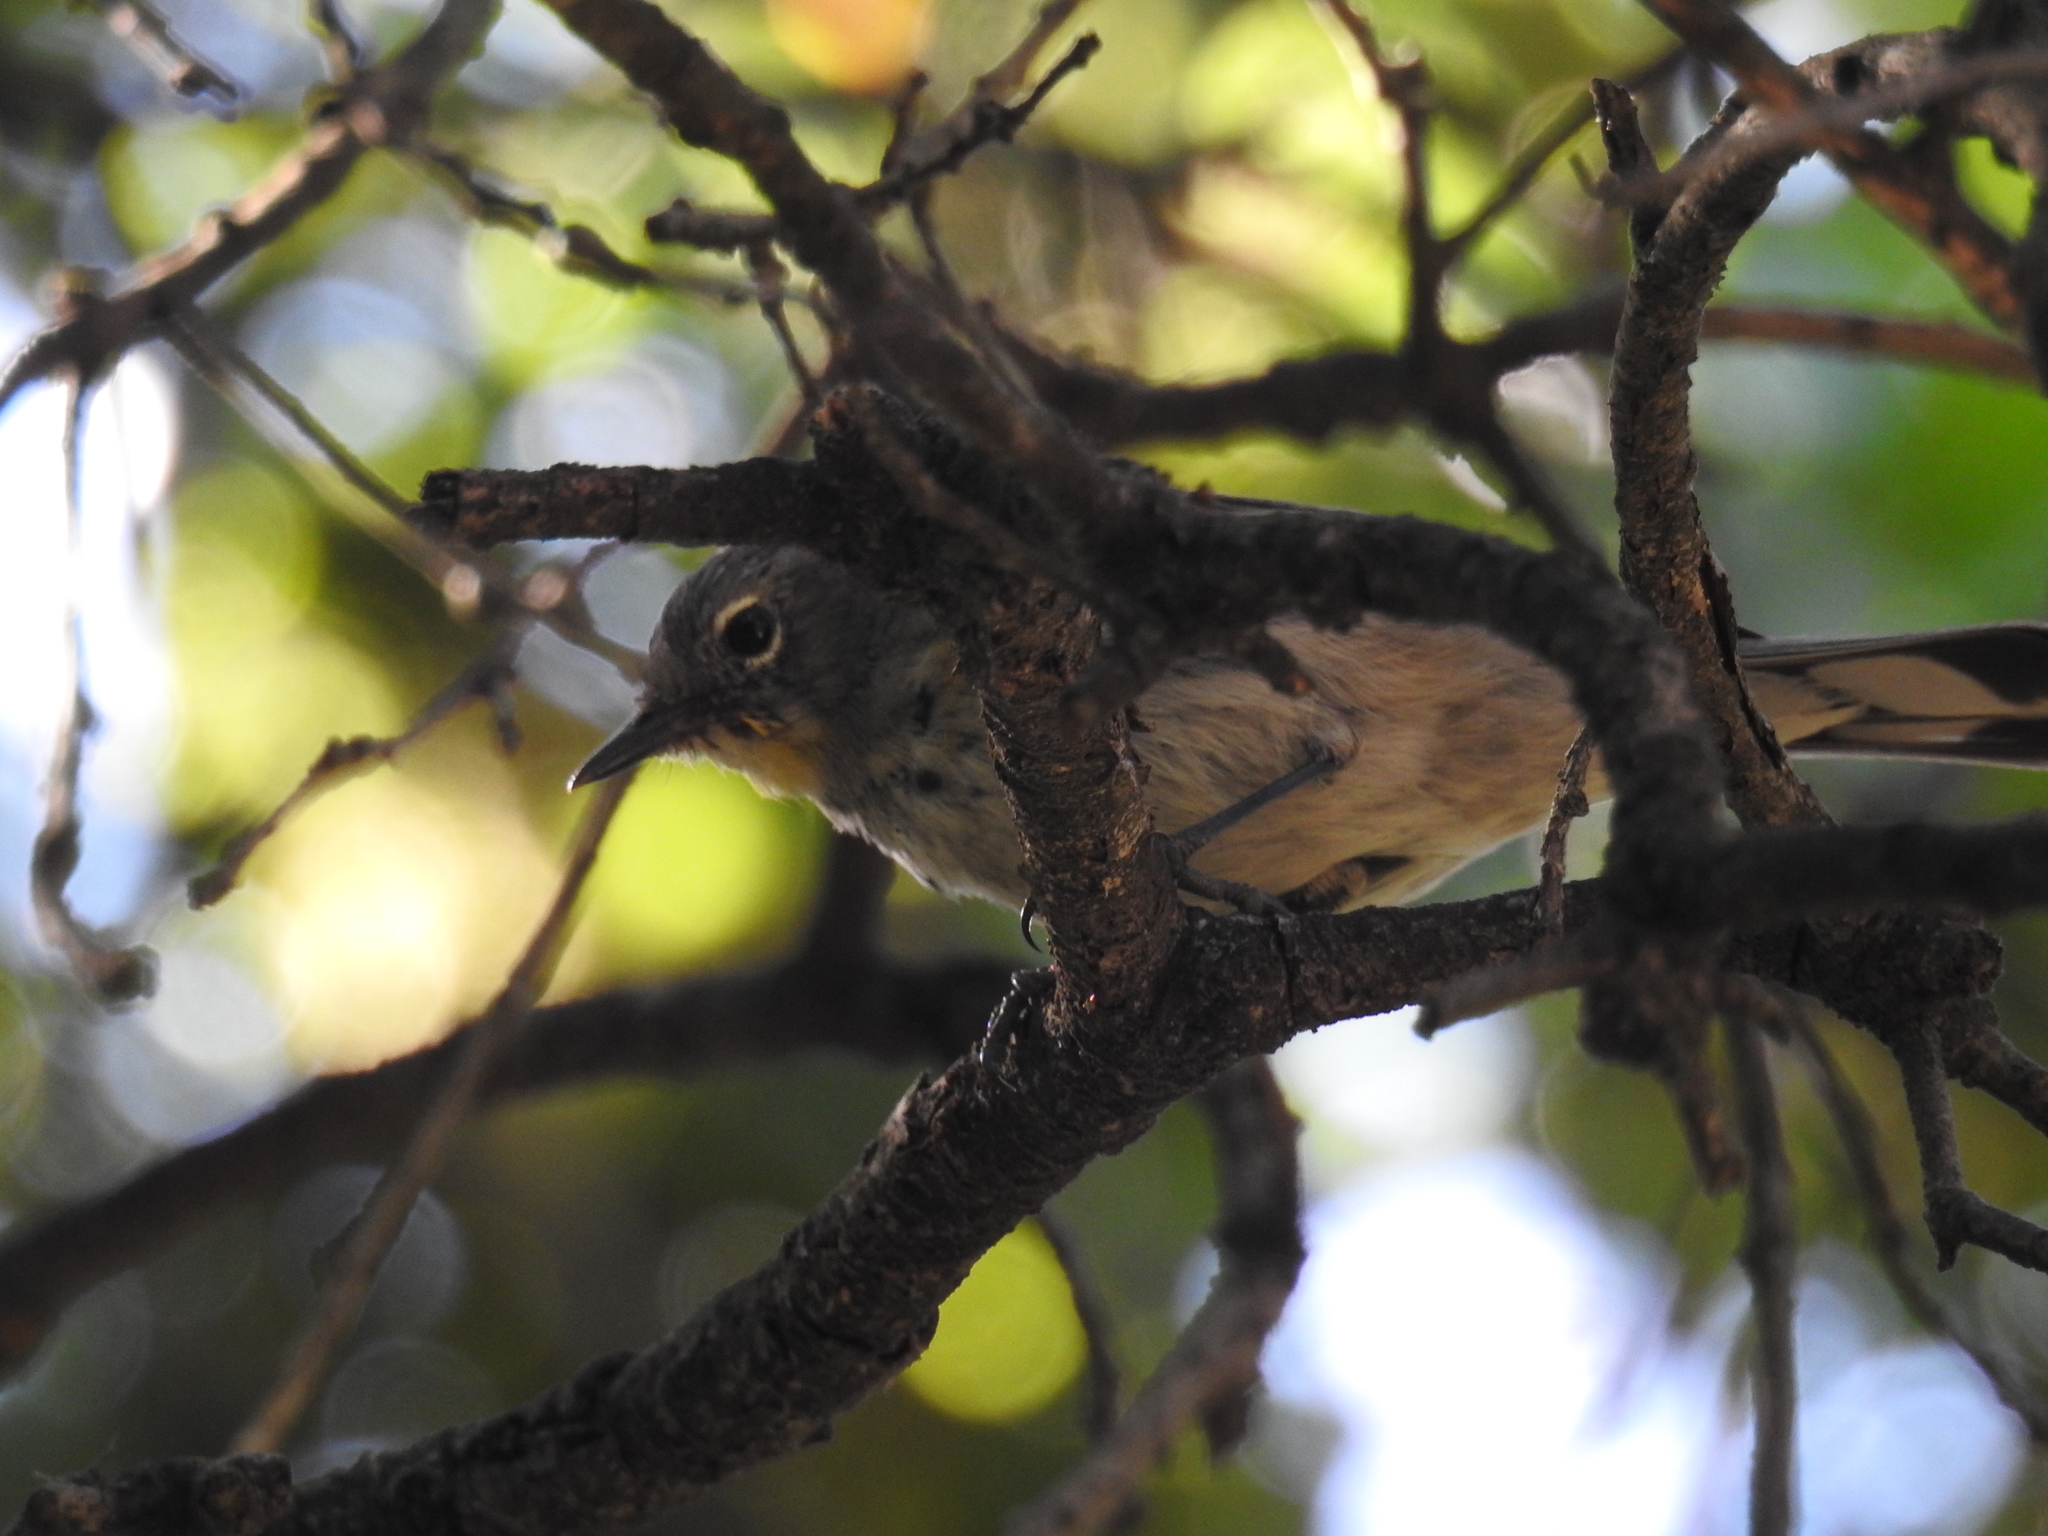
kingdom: Animalia
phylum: Chordata
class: Aves
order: Passeriformes
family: Parulidae
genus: Setophaga
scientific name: Setophaga coronata
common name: Myrtle warbler
